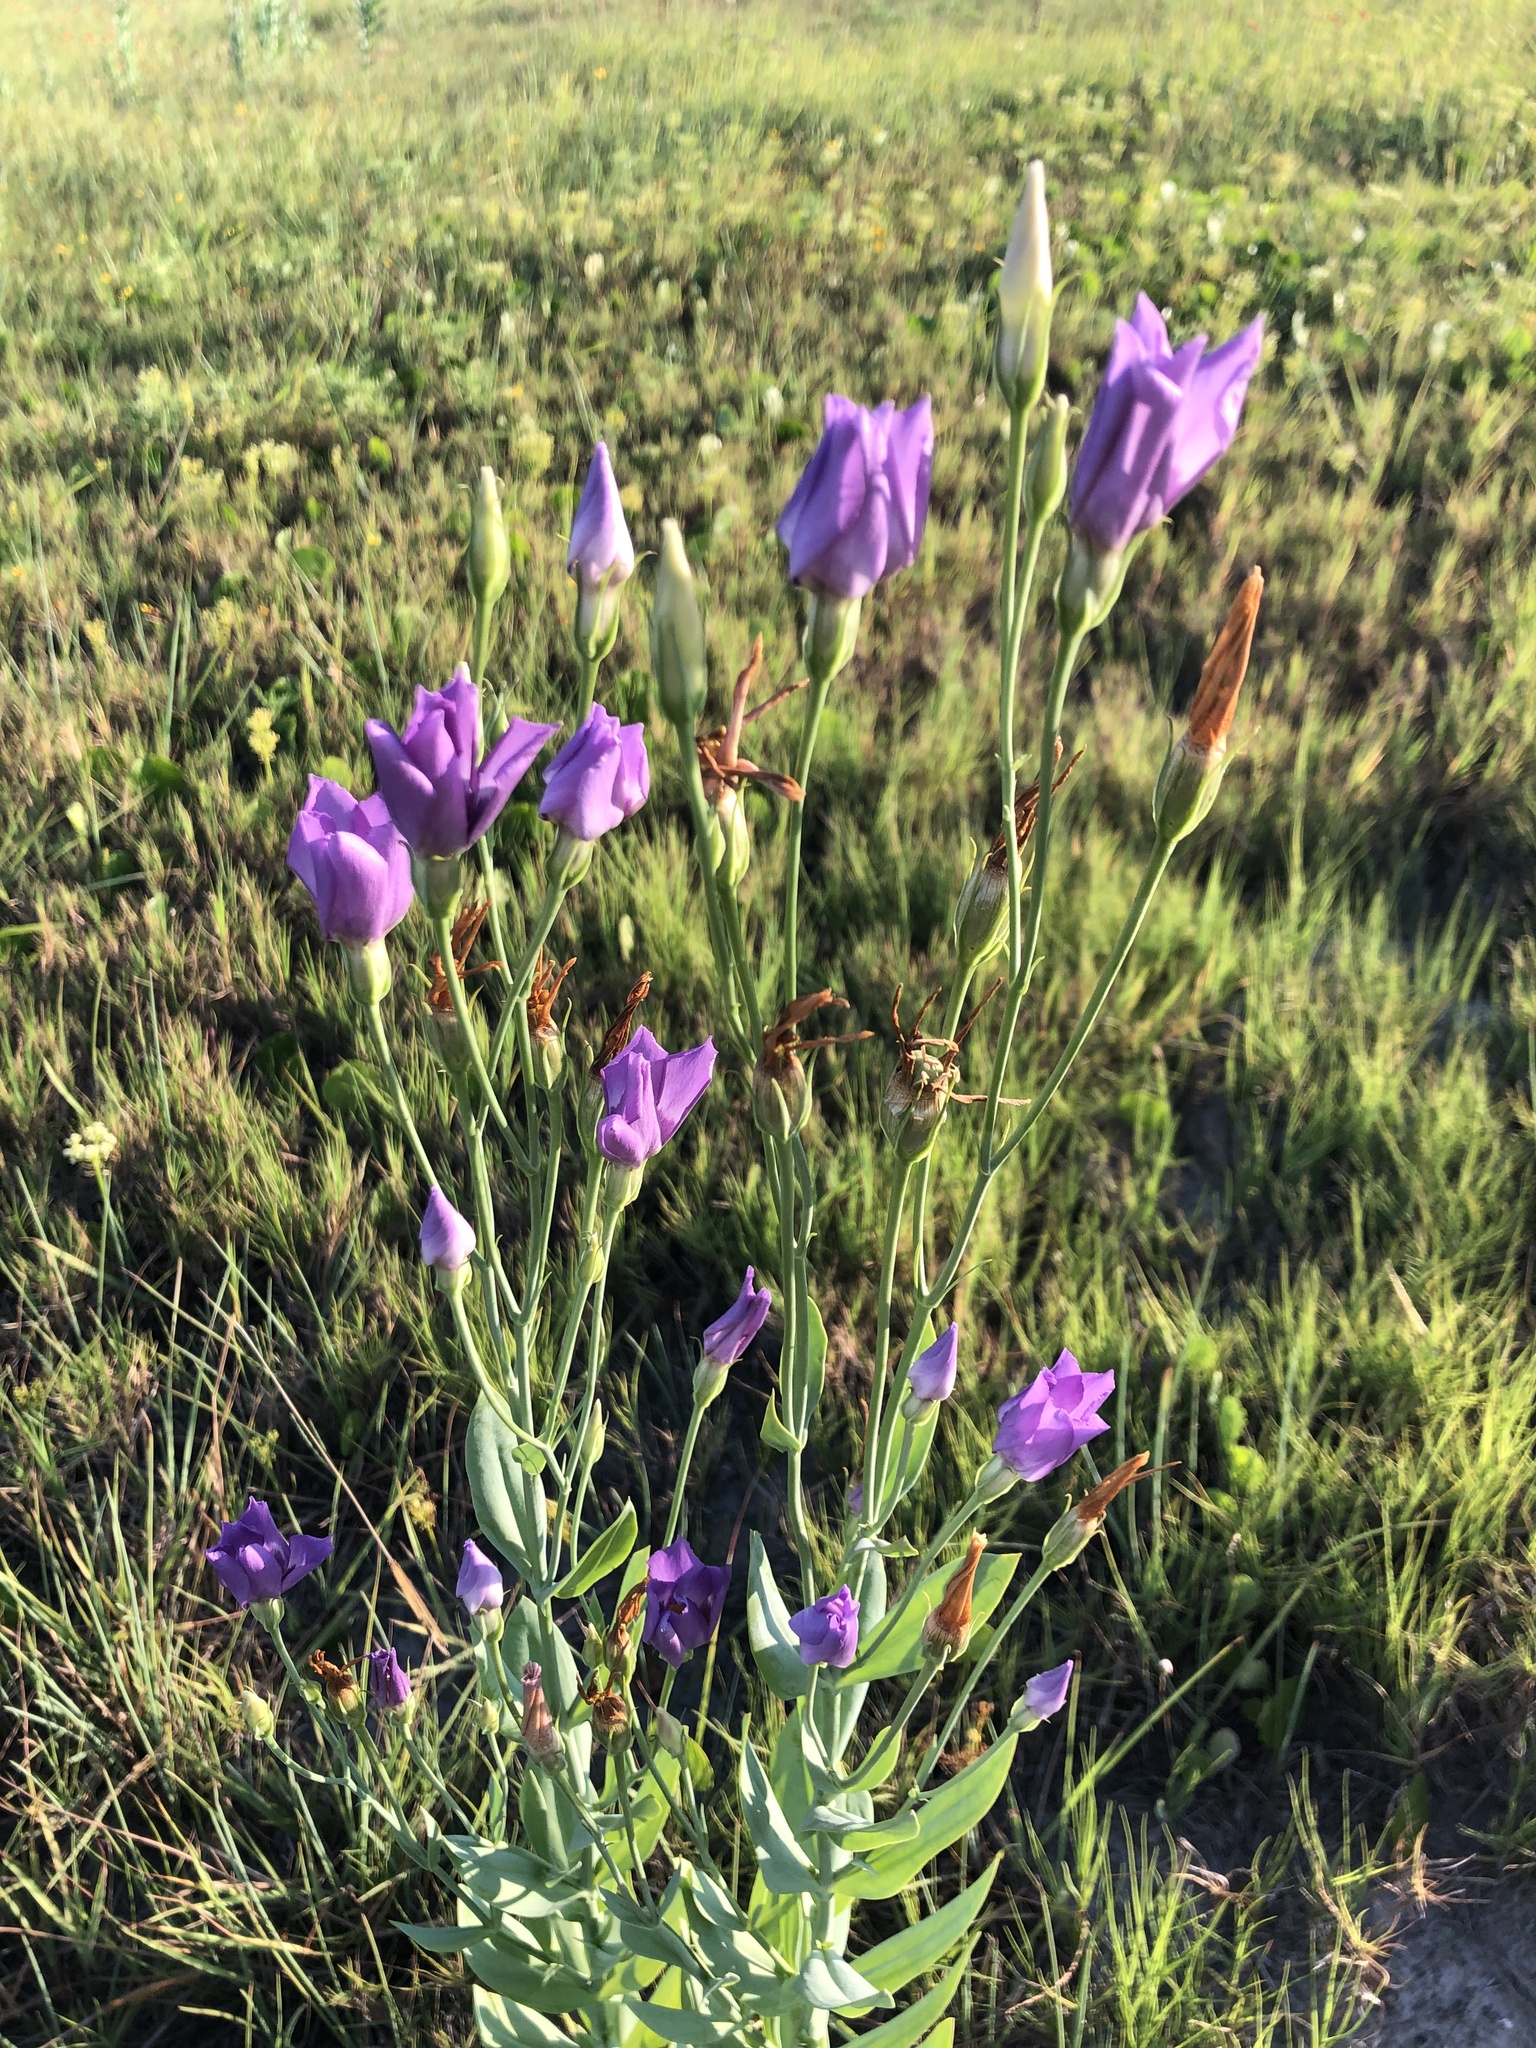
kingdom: Plantae
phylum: Tracheophyta
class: Magnoliopsida
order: Gentianales
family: Gentianaceae
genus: Eustoma
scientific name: Eustoma exaltatum
